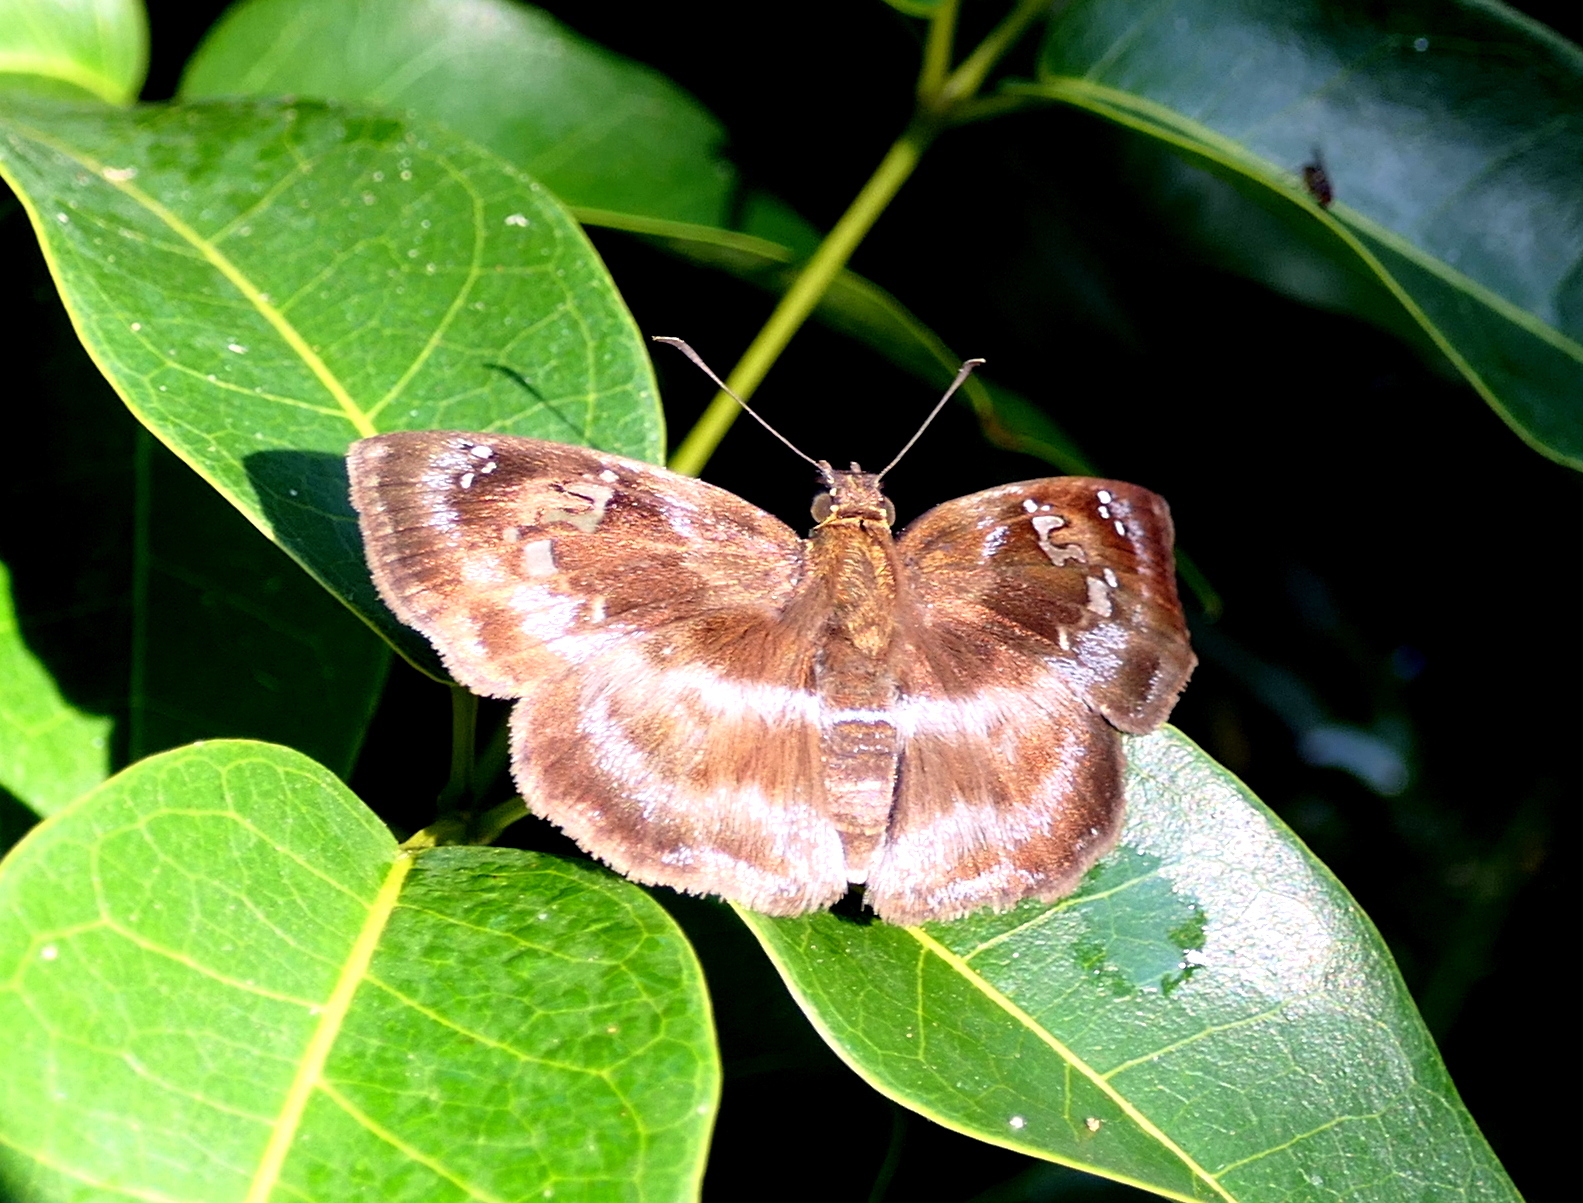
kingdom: Animalia
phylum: Arthropoda
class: Insecta
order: Lepidoptera
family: Hesperiidae
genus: Quadrus
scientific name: Quadrus cerialis
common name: Common blue-skipper
